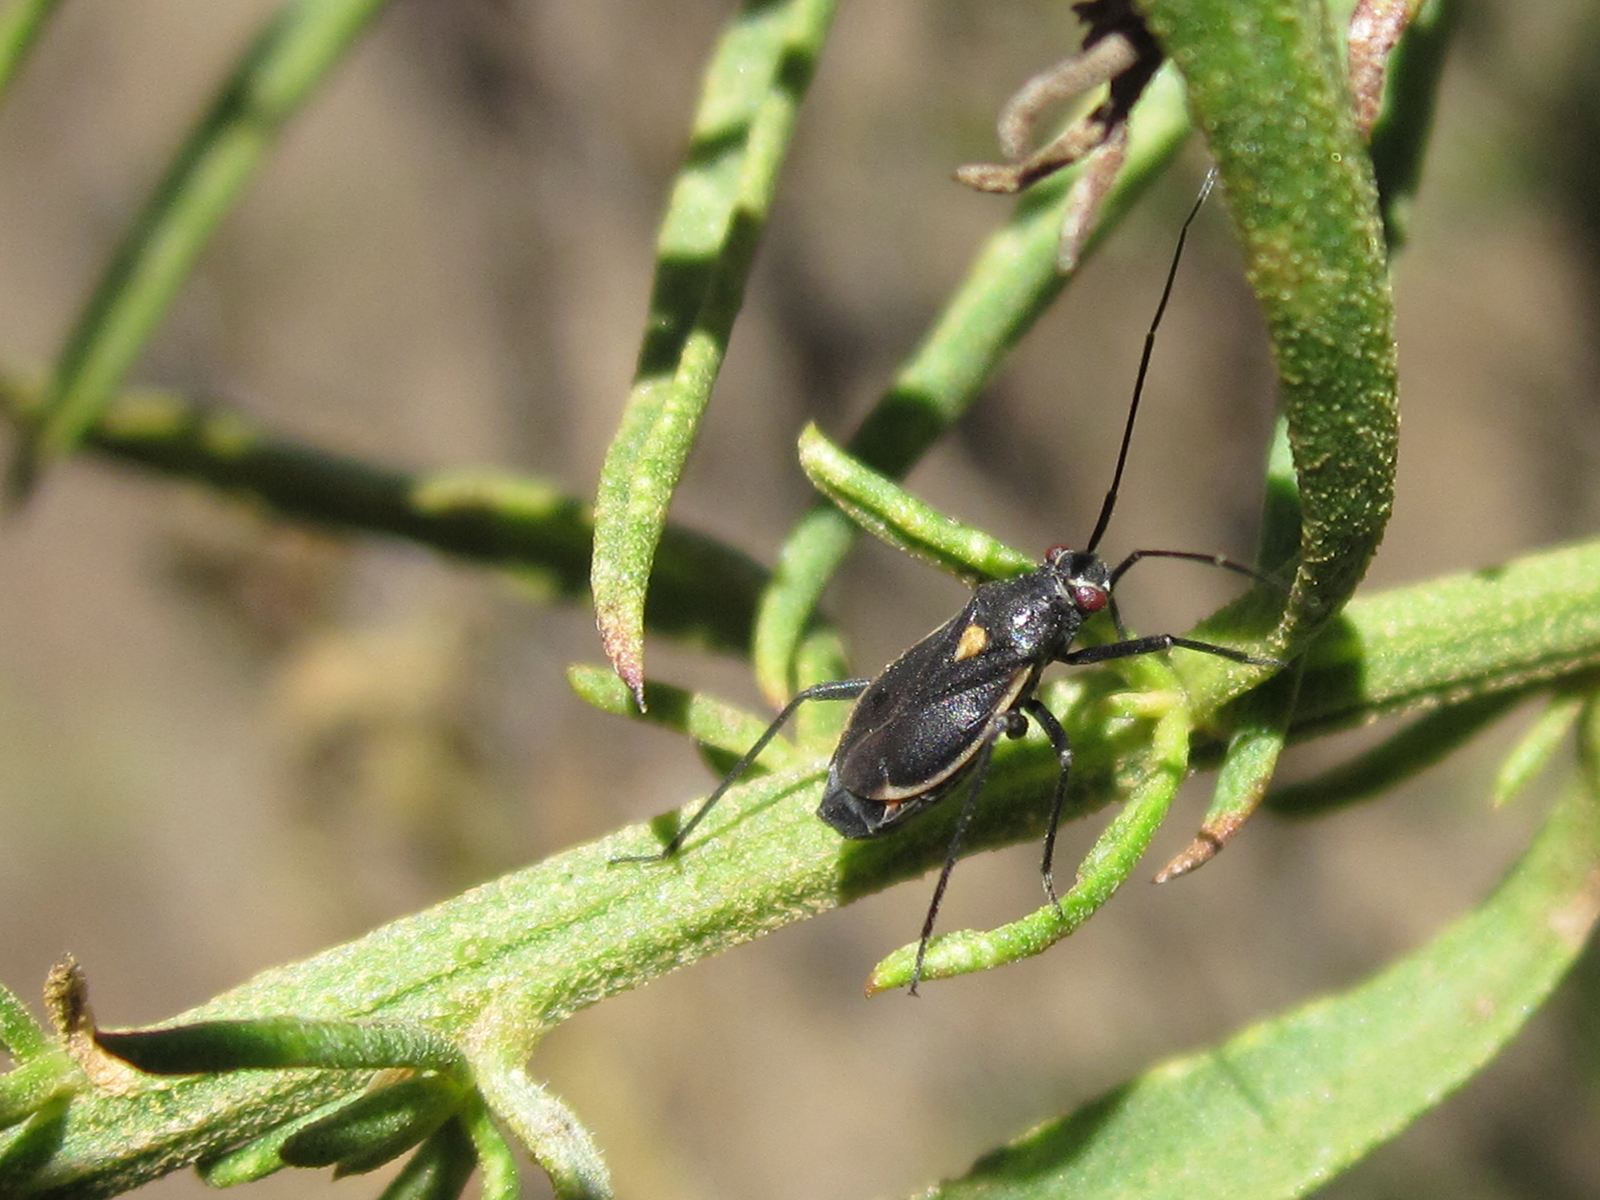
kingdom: Animalia
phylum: Arthropoda
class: Insecta
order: Hemiptera
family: Miridae
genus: Stenoparedra
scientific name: Stenoparedra
